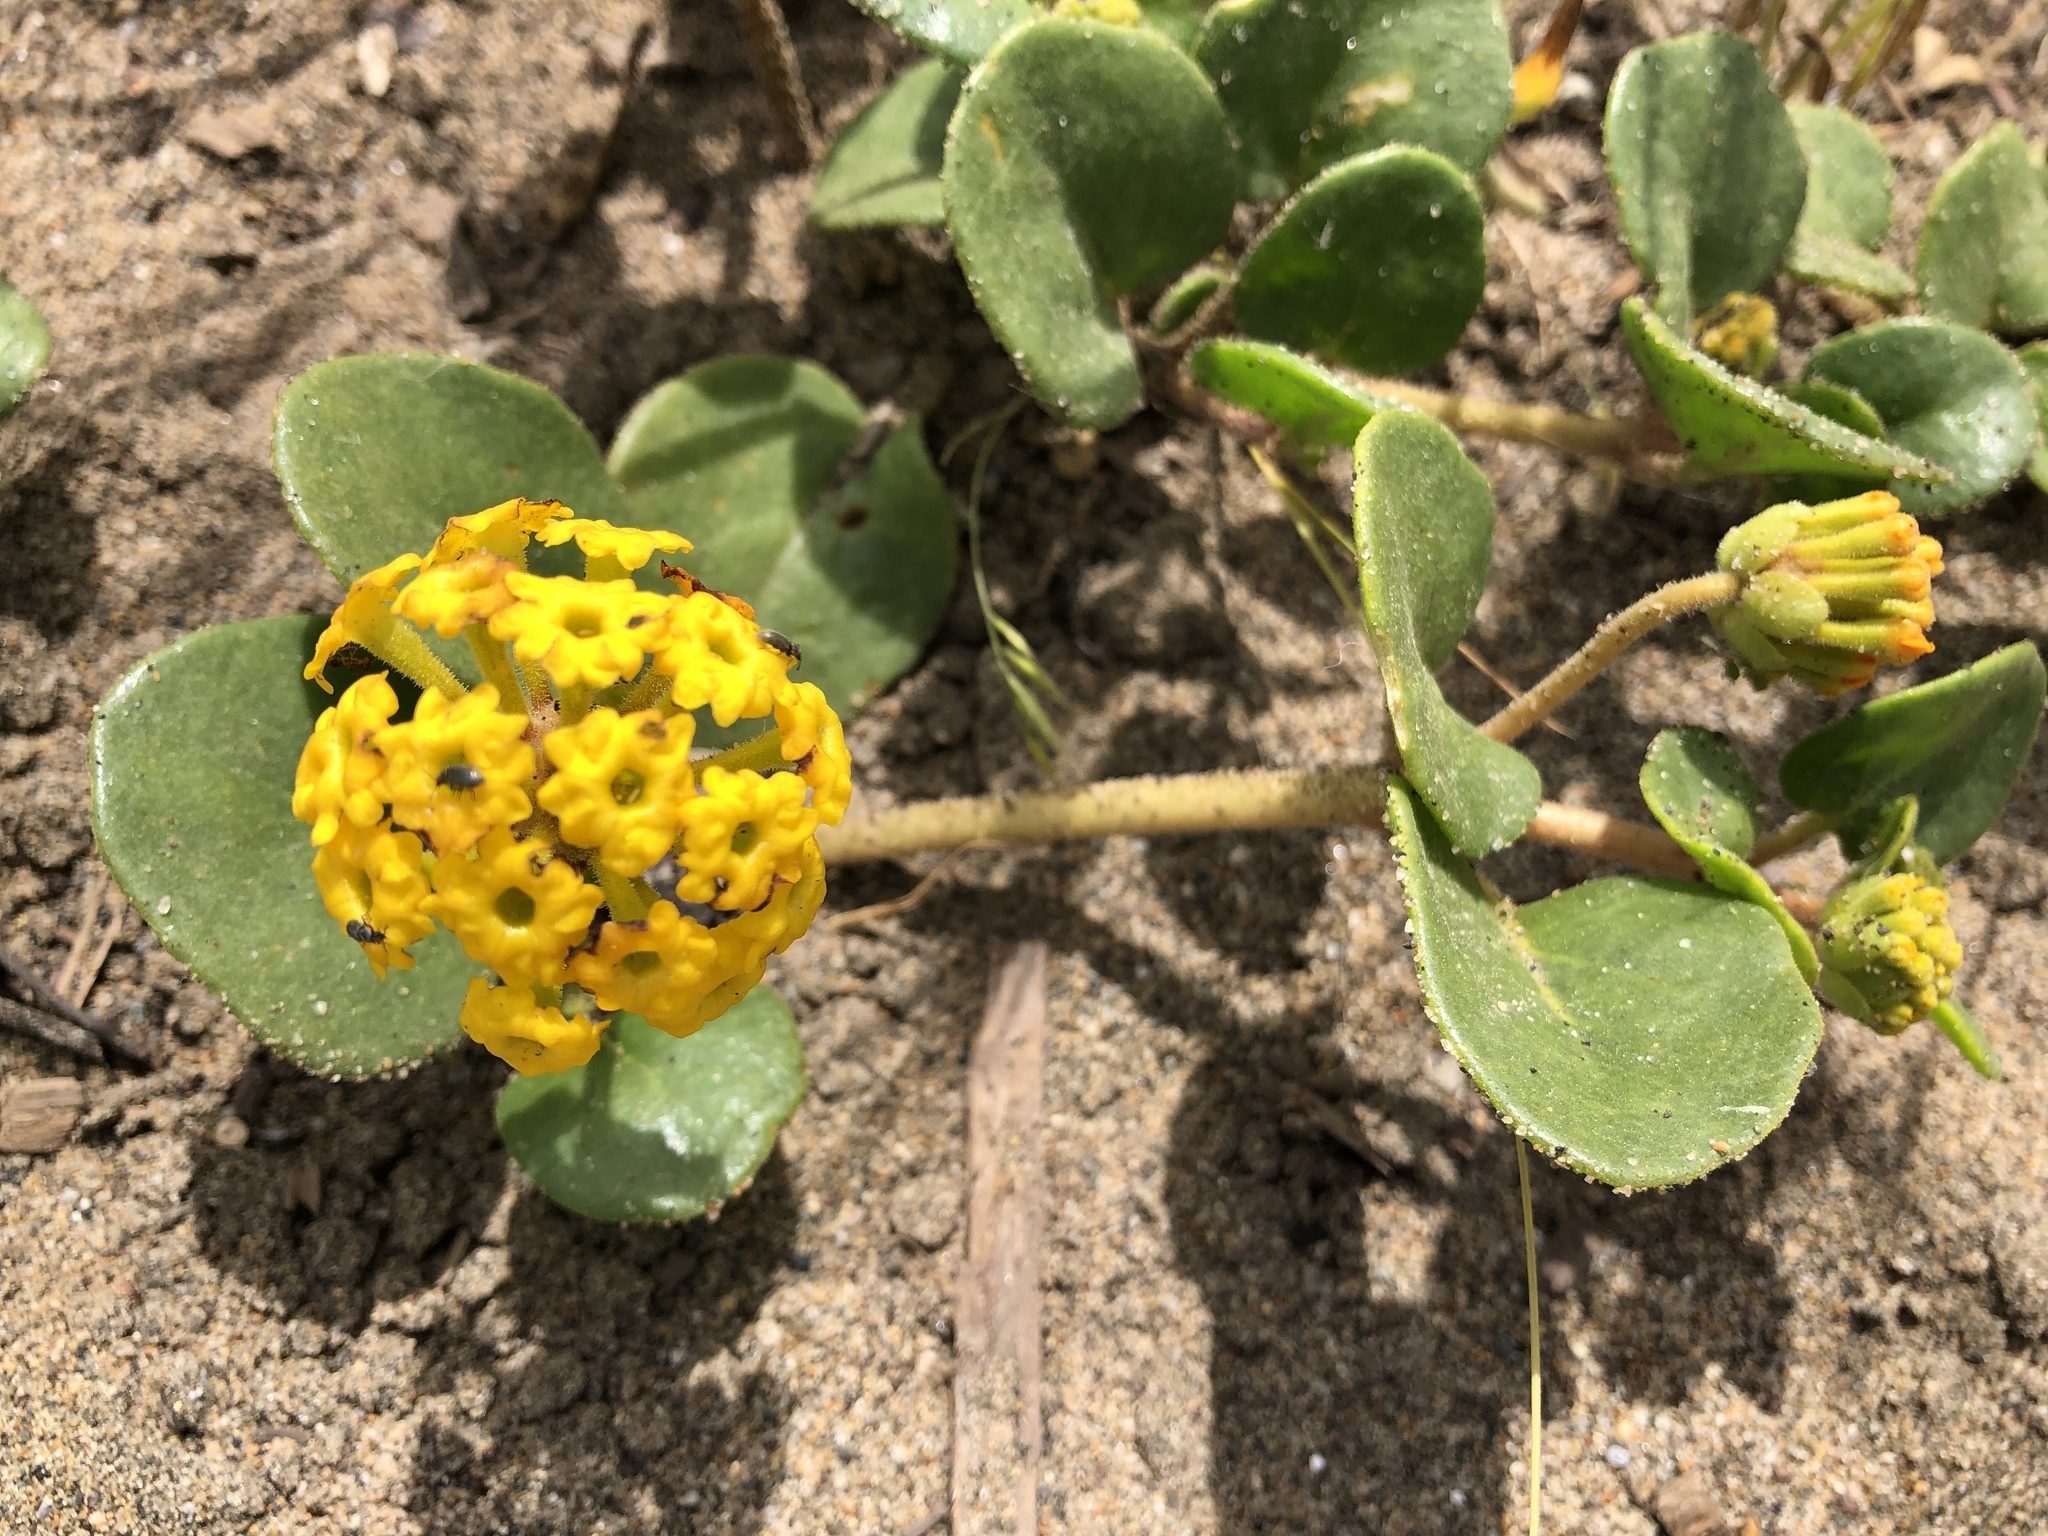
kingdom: Plantae
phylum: Tracheophyta
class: Magnoliopsida
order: Caryophyllales
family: Nyctaginaceae
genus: Abronia
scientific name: Abronia latifolia
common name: Yellow sand-verbena
